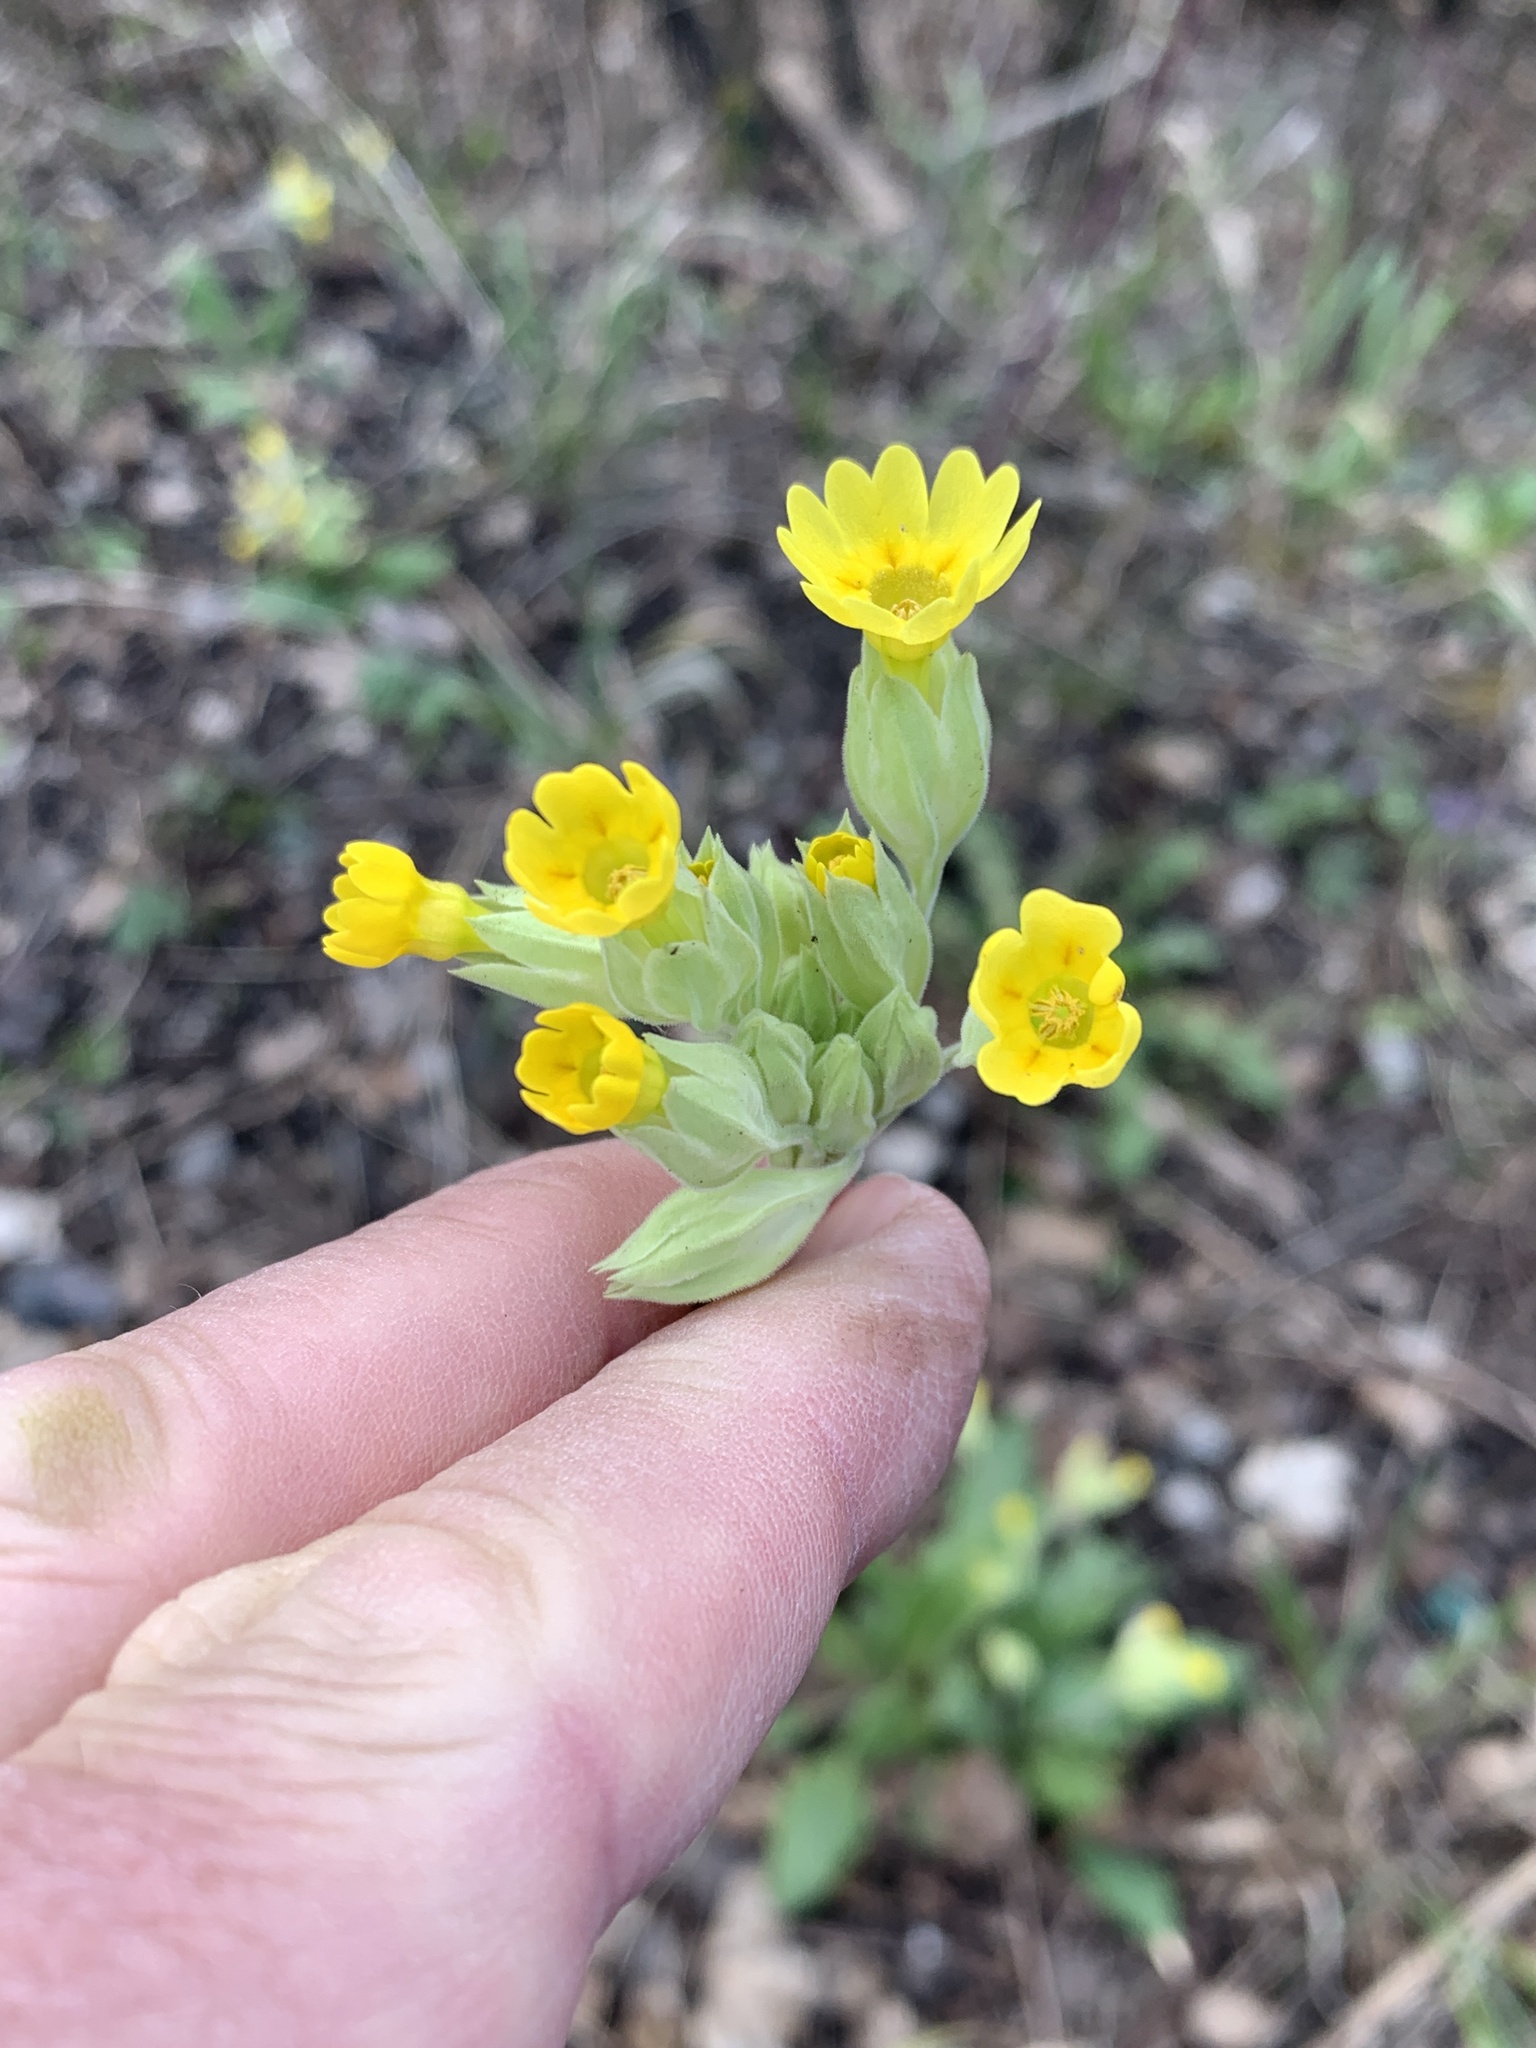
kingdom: Plantae
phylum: Tracheophyta
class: Magnoliopsida
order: Ericales
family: Primulaceae
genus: Primula
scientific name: Primula veris
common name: Cowslip
